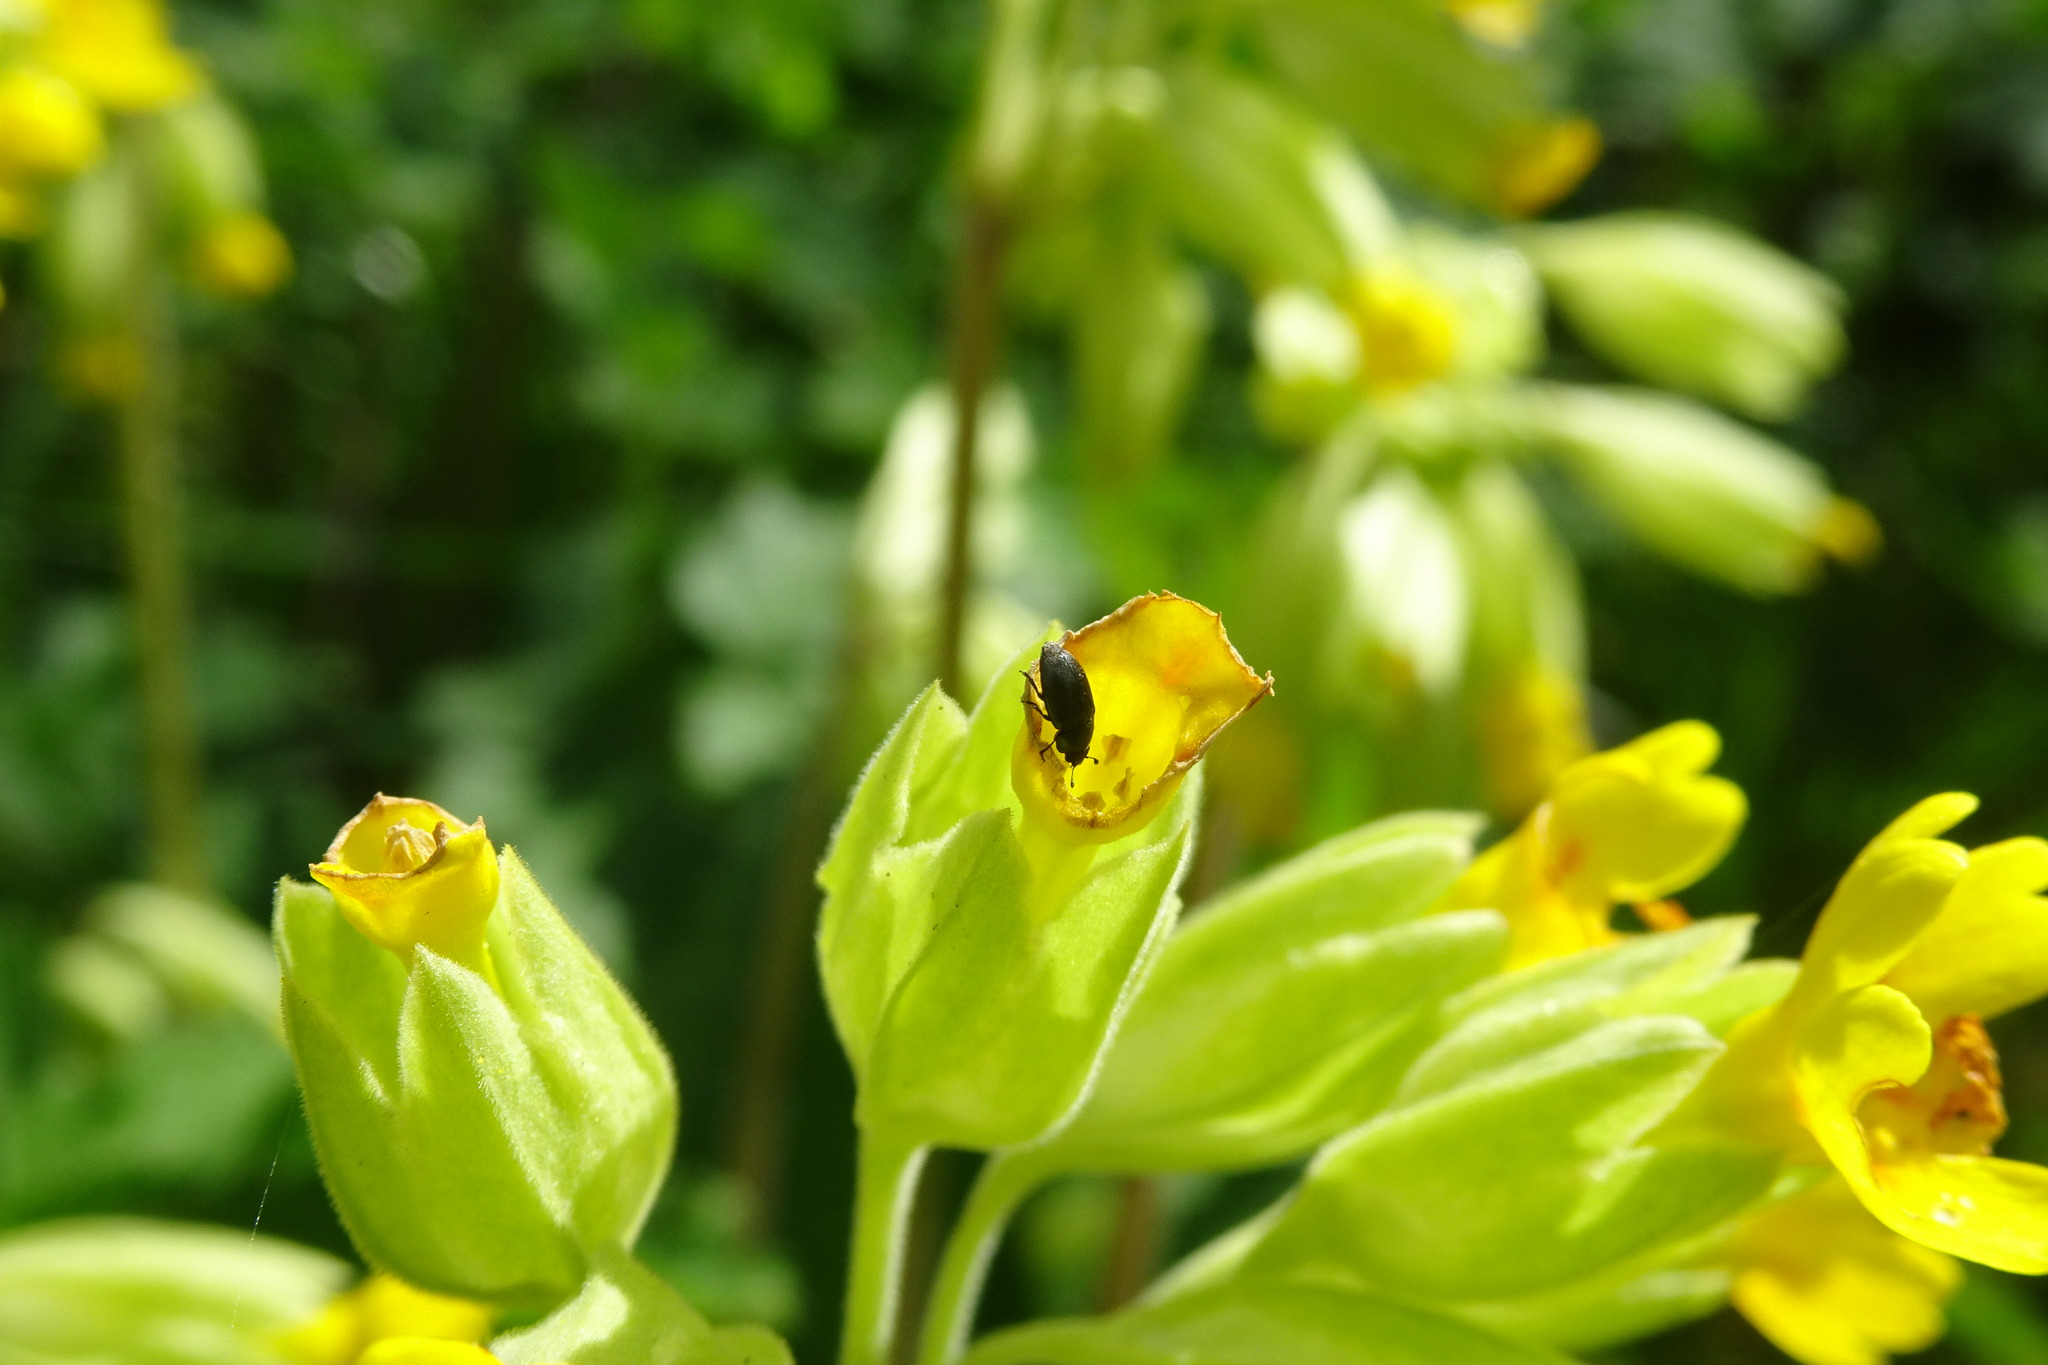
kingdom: Animalia
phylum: Arthropoda
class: Insecta
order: Coleoptera
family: Nitidulidae
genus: Brassicogethes
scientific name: Brassicogethes aeneus
